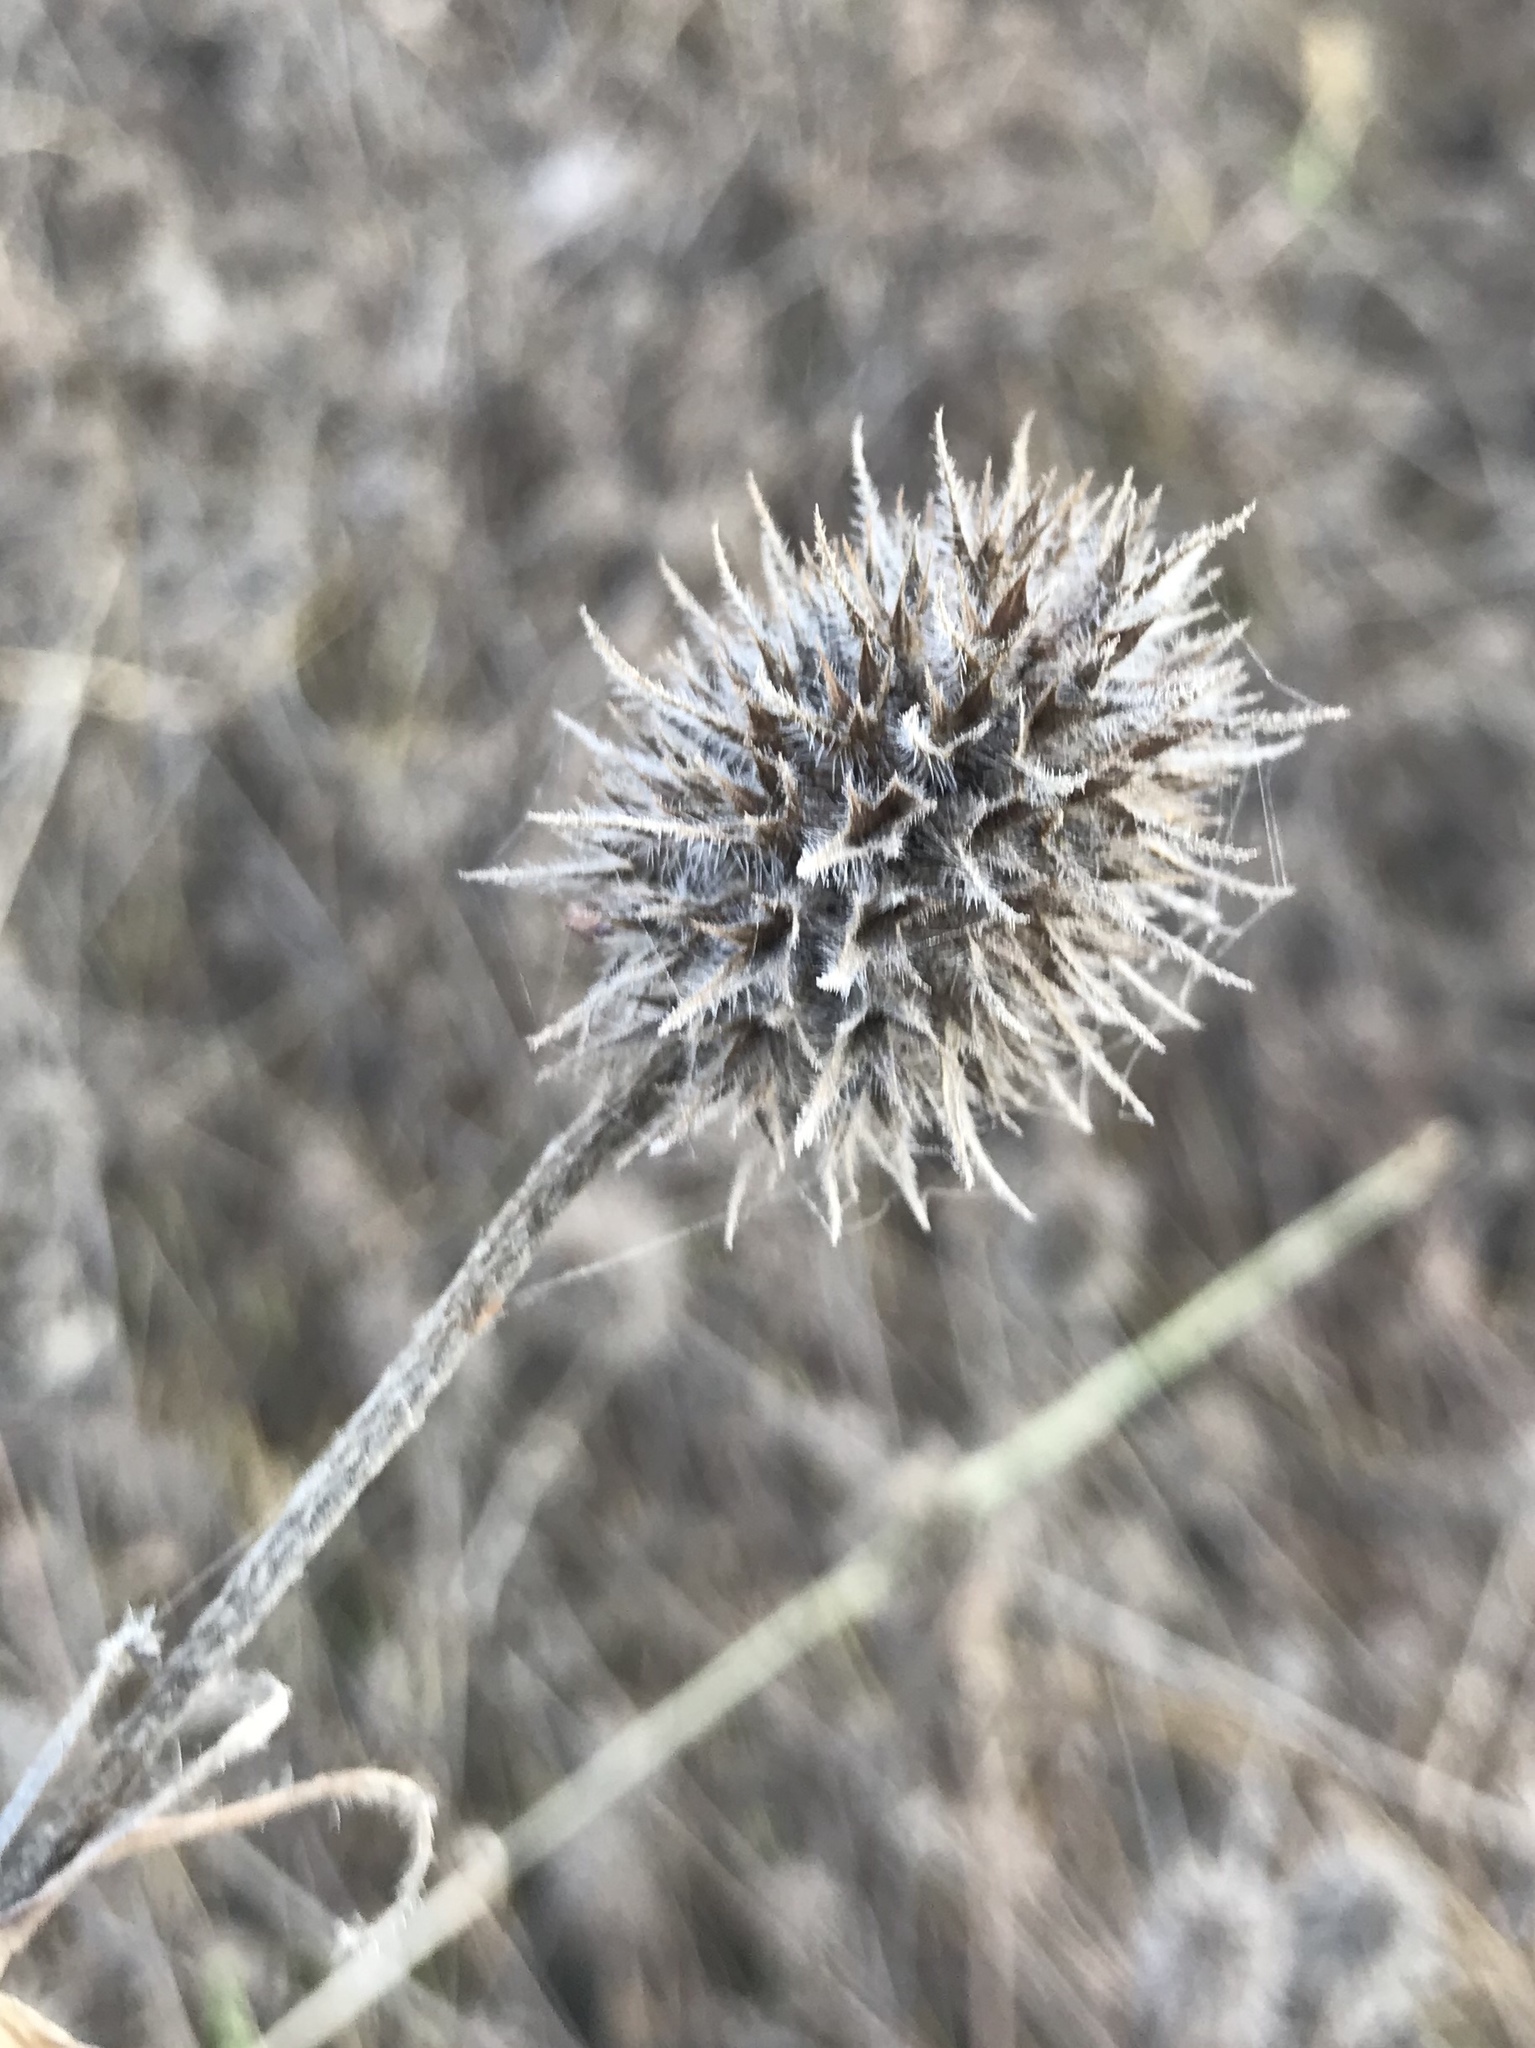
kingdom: Plantae
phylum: Tracheophyta
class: Magnoliopsida
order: Fabales
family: Fabaceae
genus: Trifolium
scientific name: Trifolium squarrosum
